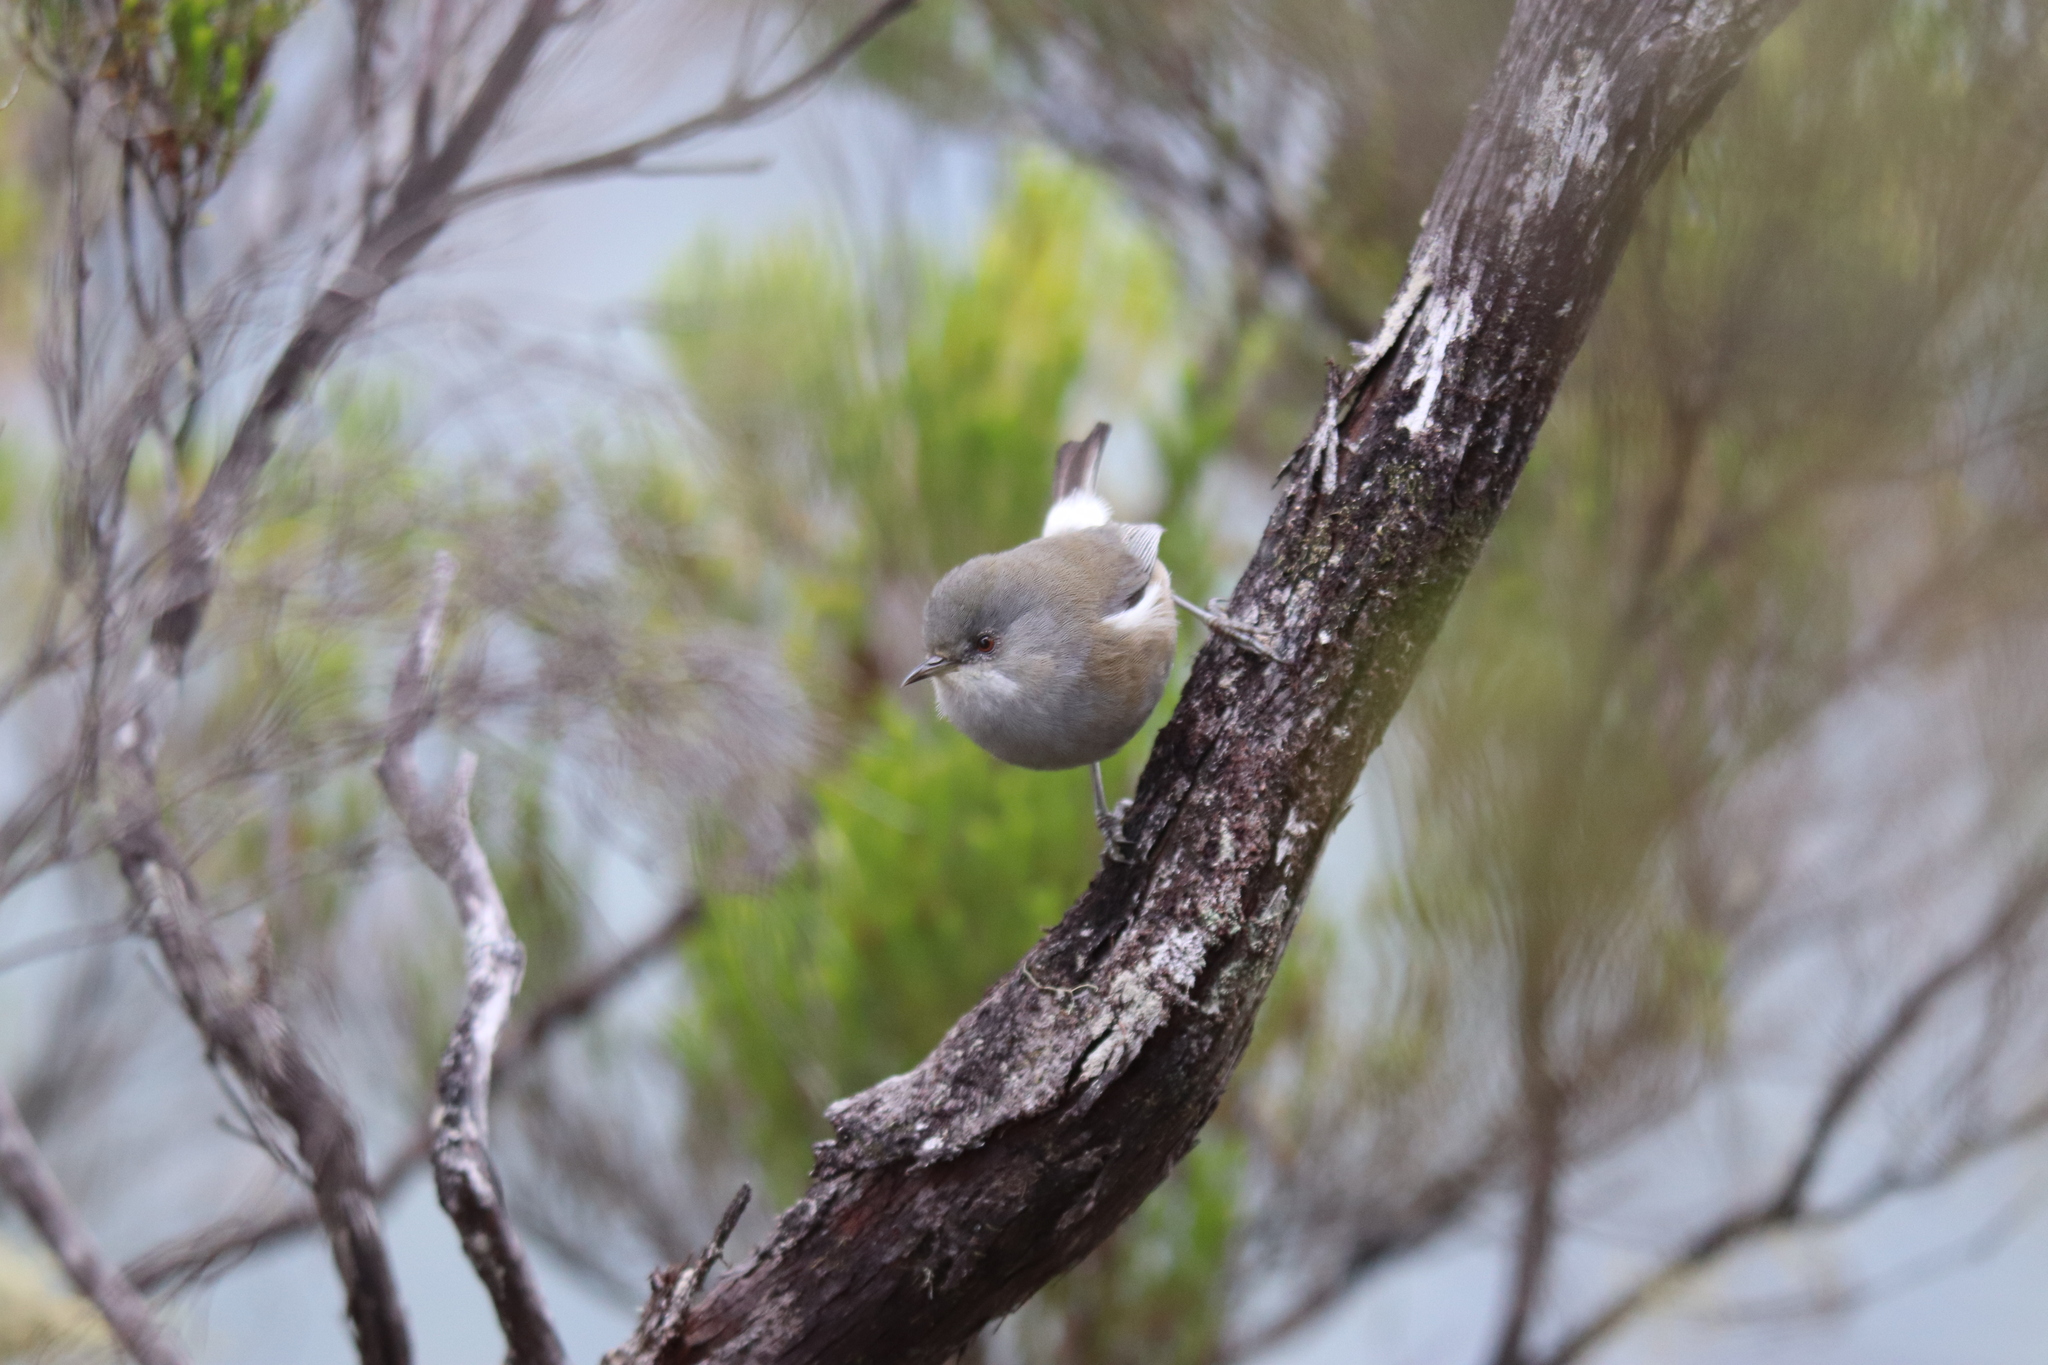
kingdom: Animalia
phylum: Chordata
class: Aves
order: Passeriformes
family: Zosteropidae
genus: Zosterops
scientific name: Zosterops borbonicus
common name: Reunion grey white-eye
